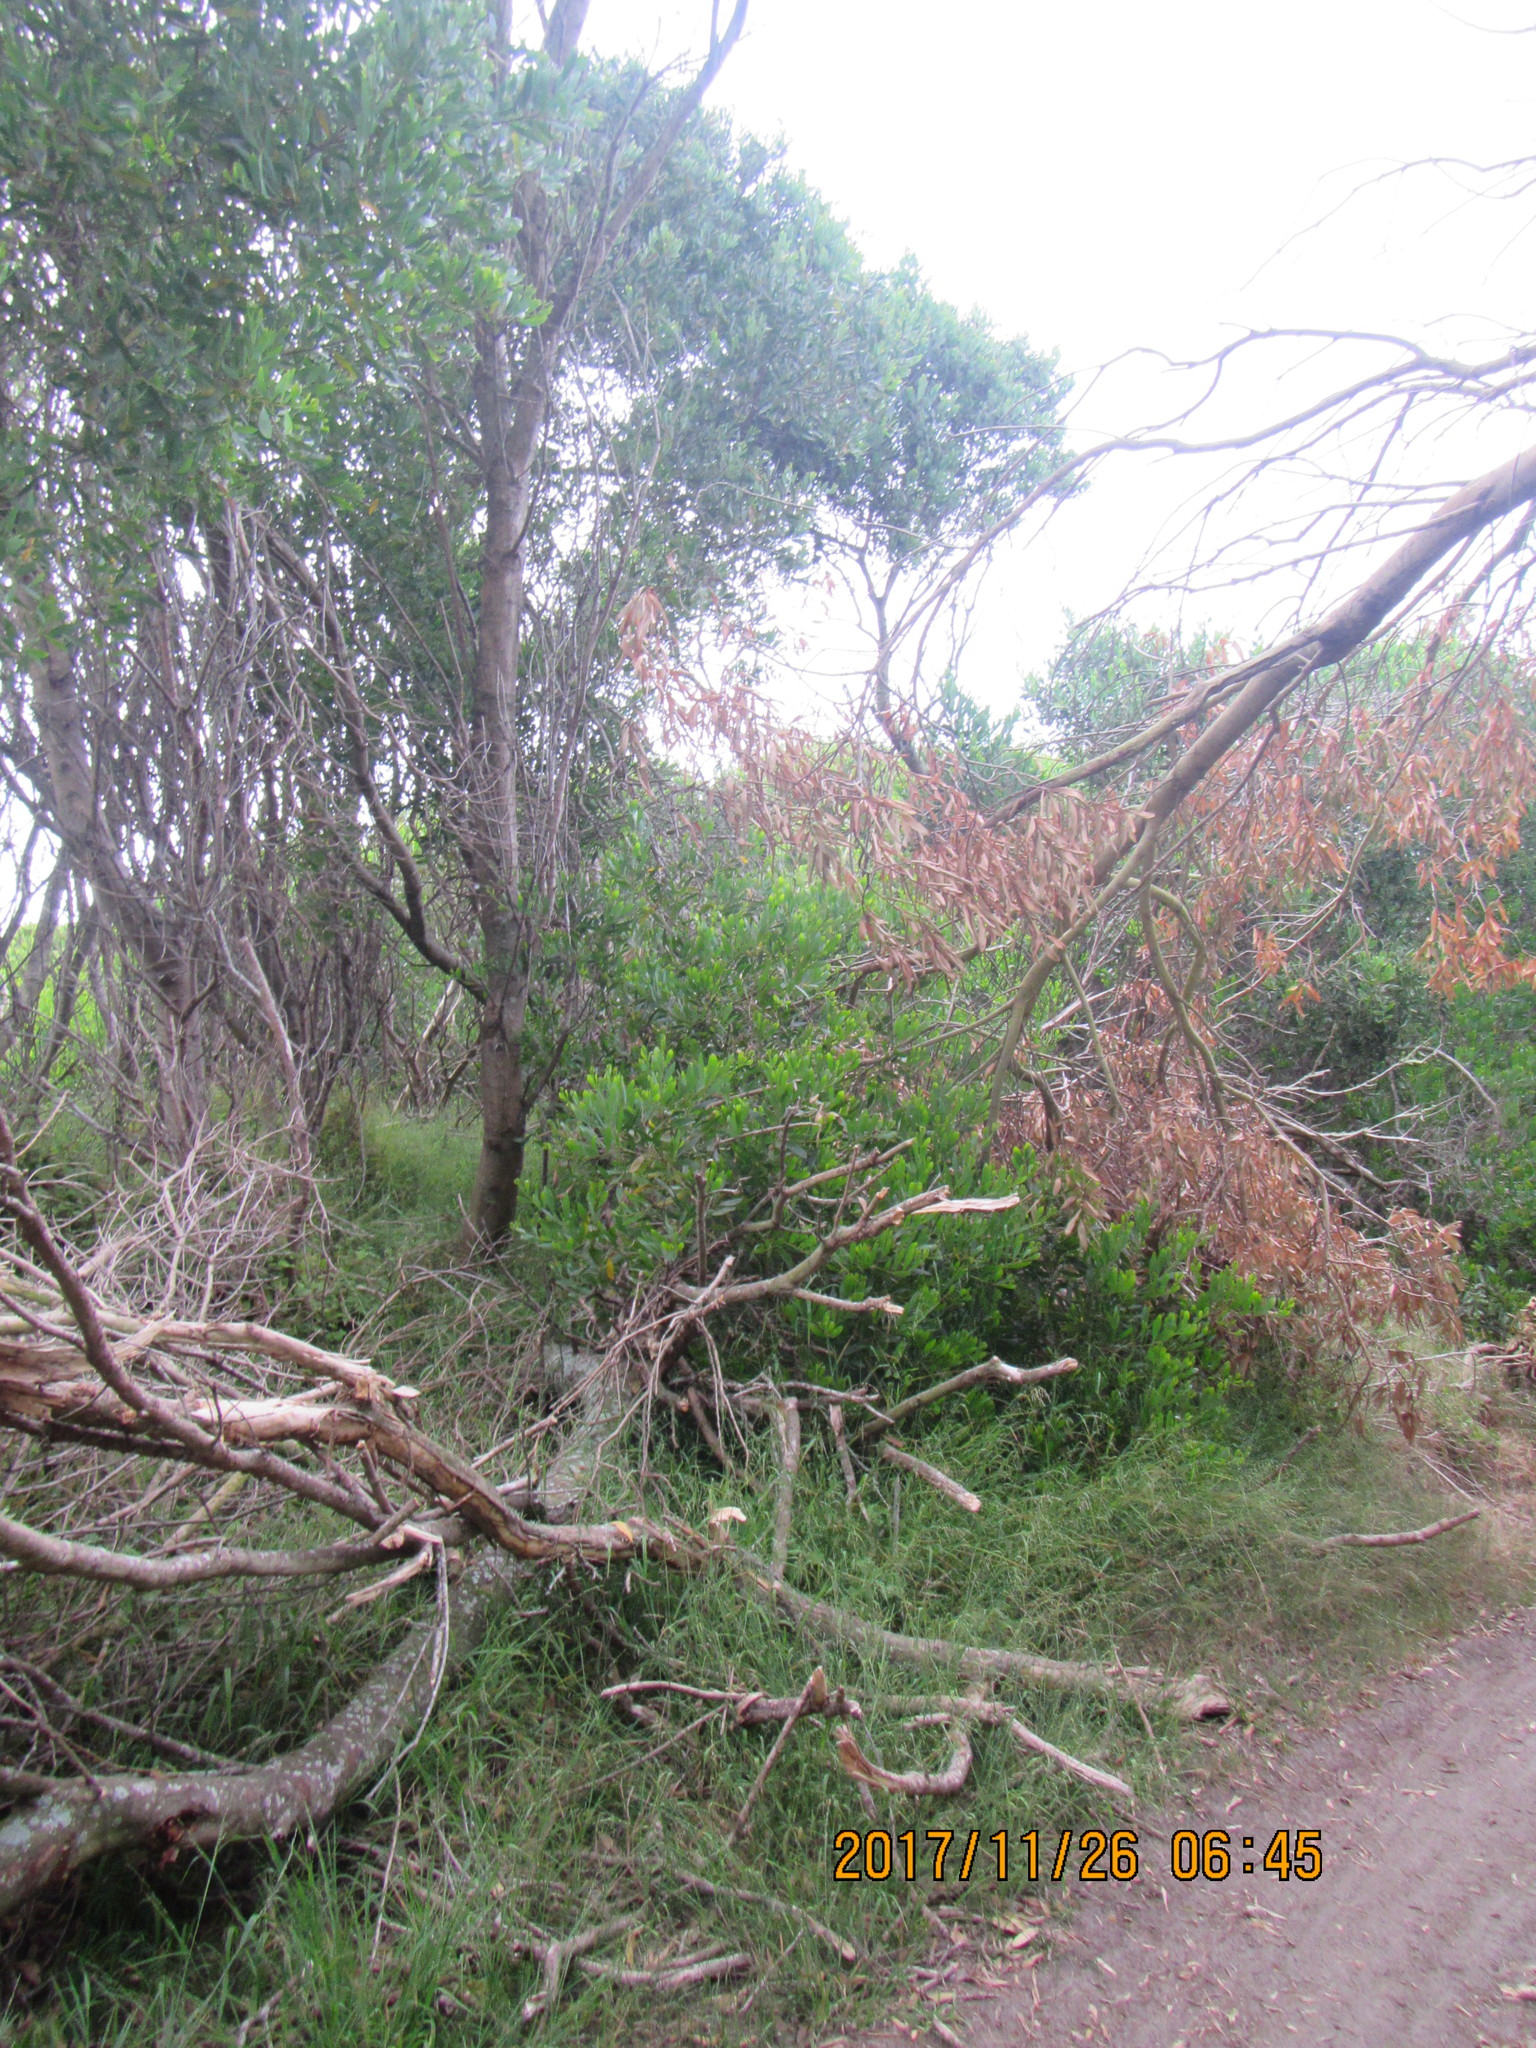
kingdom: Plantae
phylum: Tracheophyta
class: Magnoliopsida
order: Fabales
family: Fabaceae
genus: Acacia
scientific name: Acacia longifolia
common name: Sydney golden wattle
